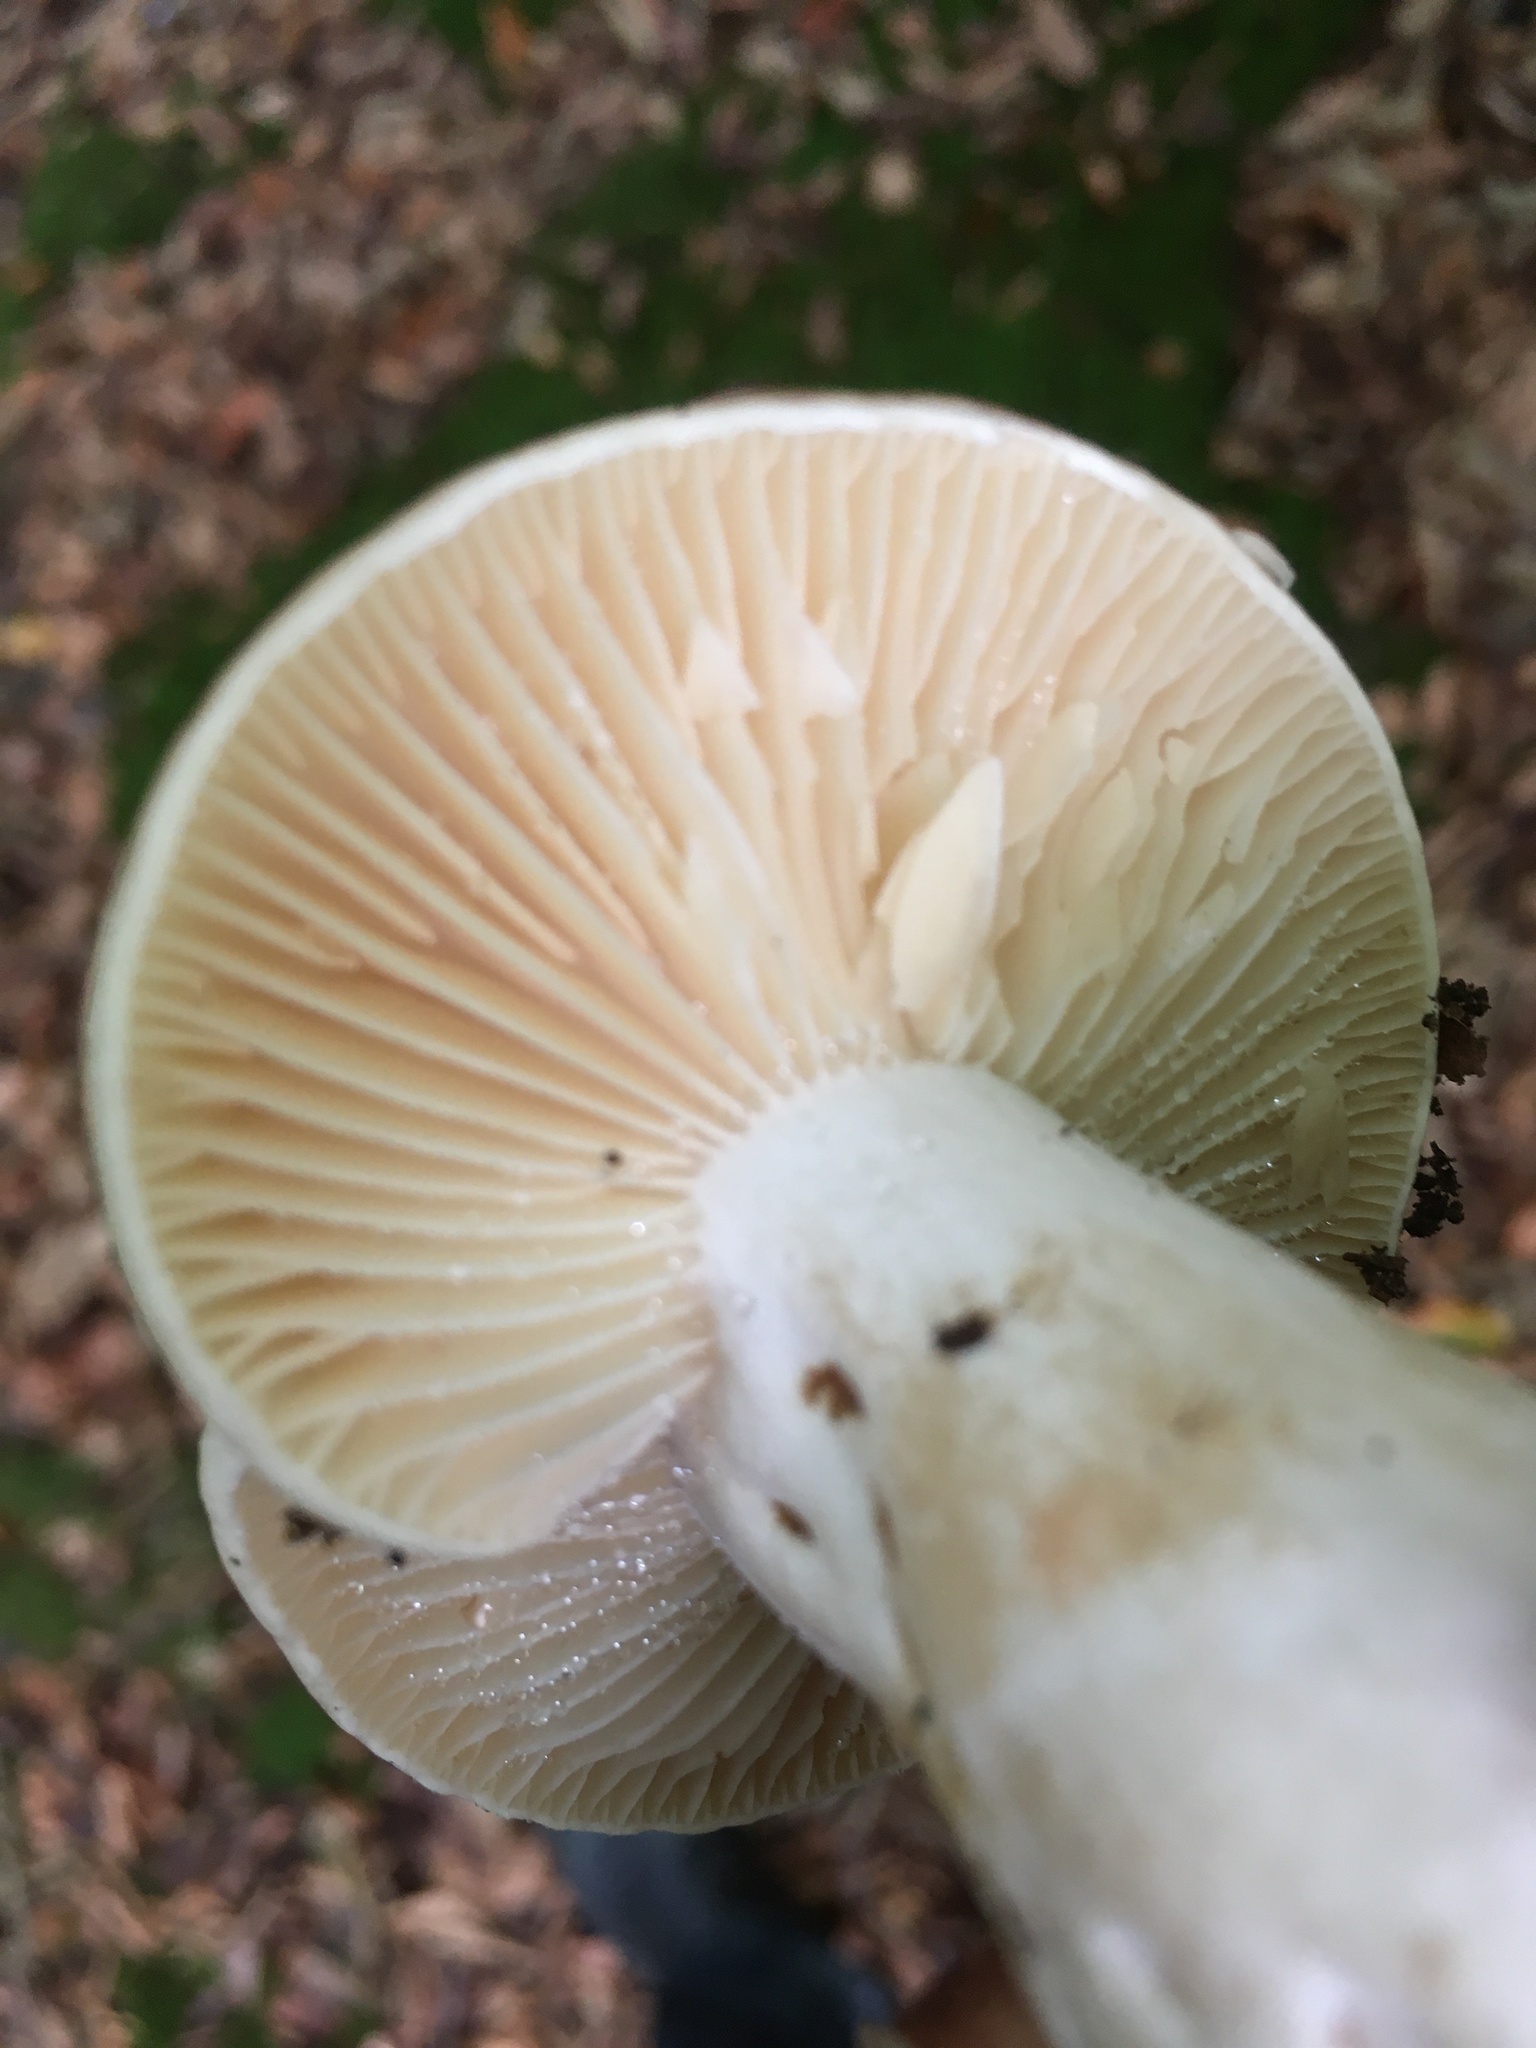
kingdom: Fungi
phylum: Basidiomycota
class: Agaricomycetes
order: Russulales
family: Russulaceae
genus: Russula
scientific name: Russula densifolia
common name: Crowded brittlegill
